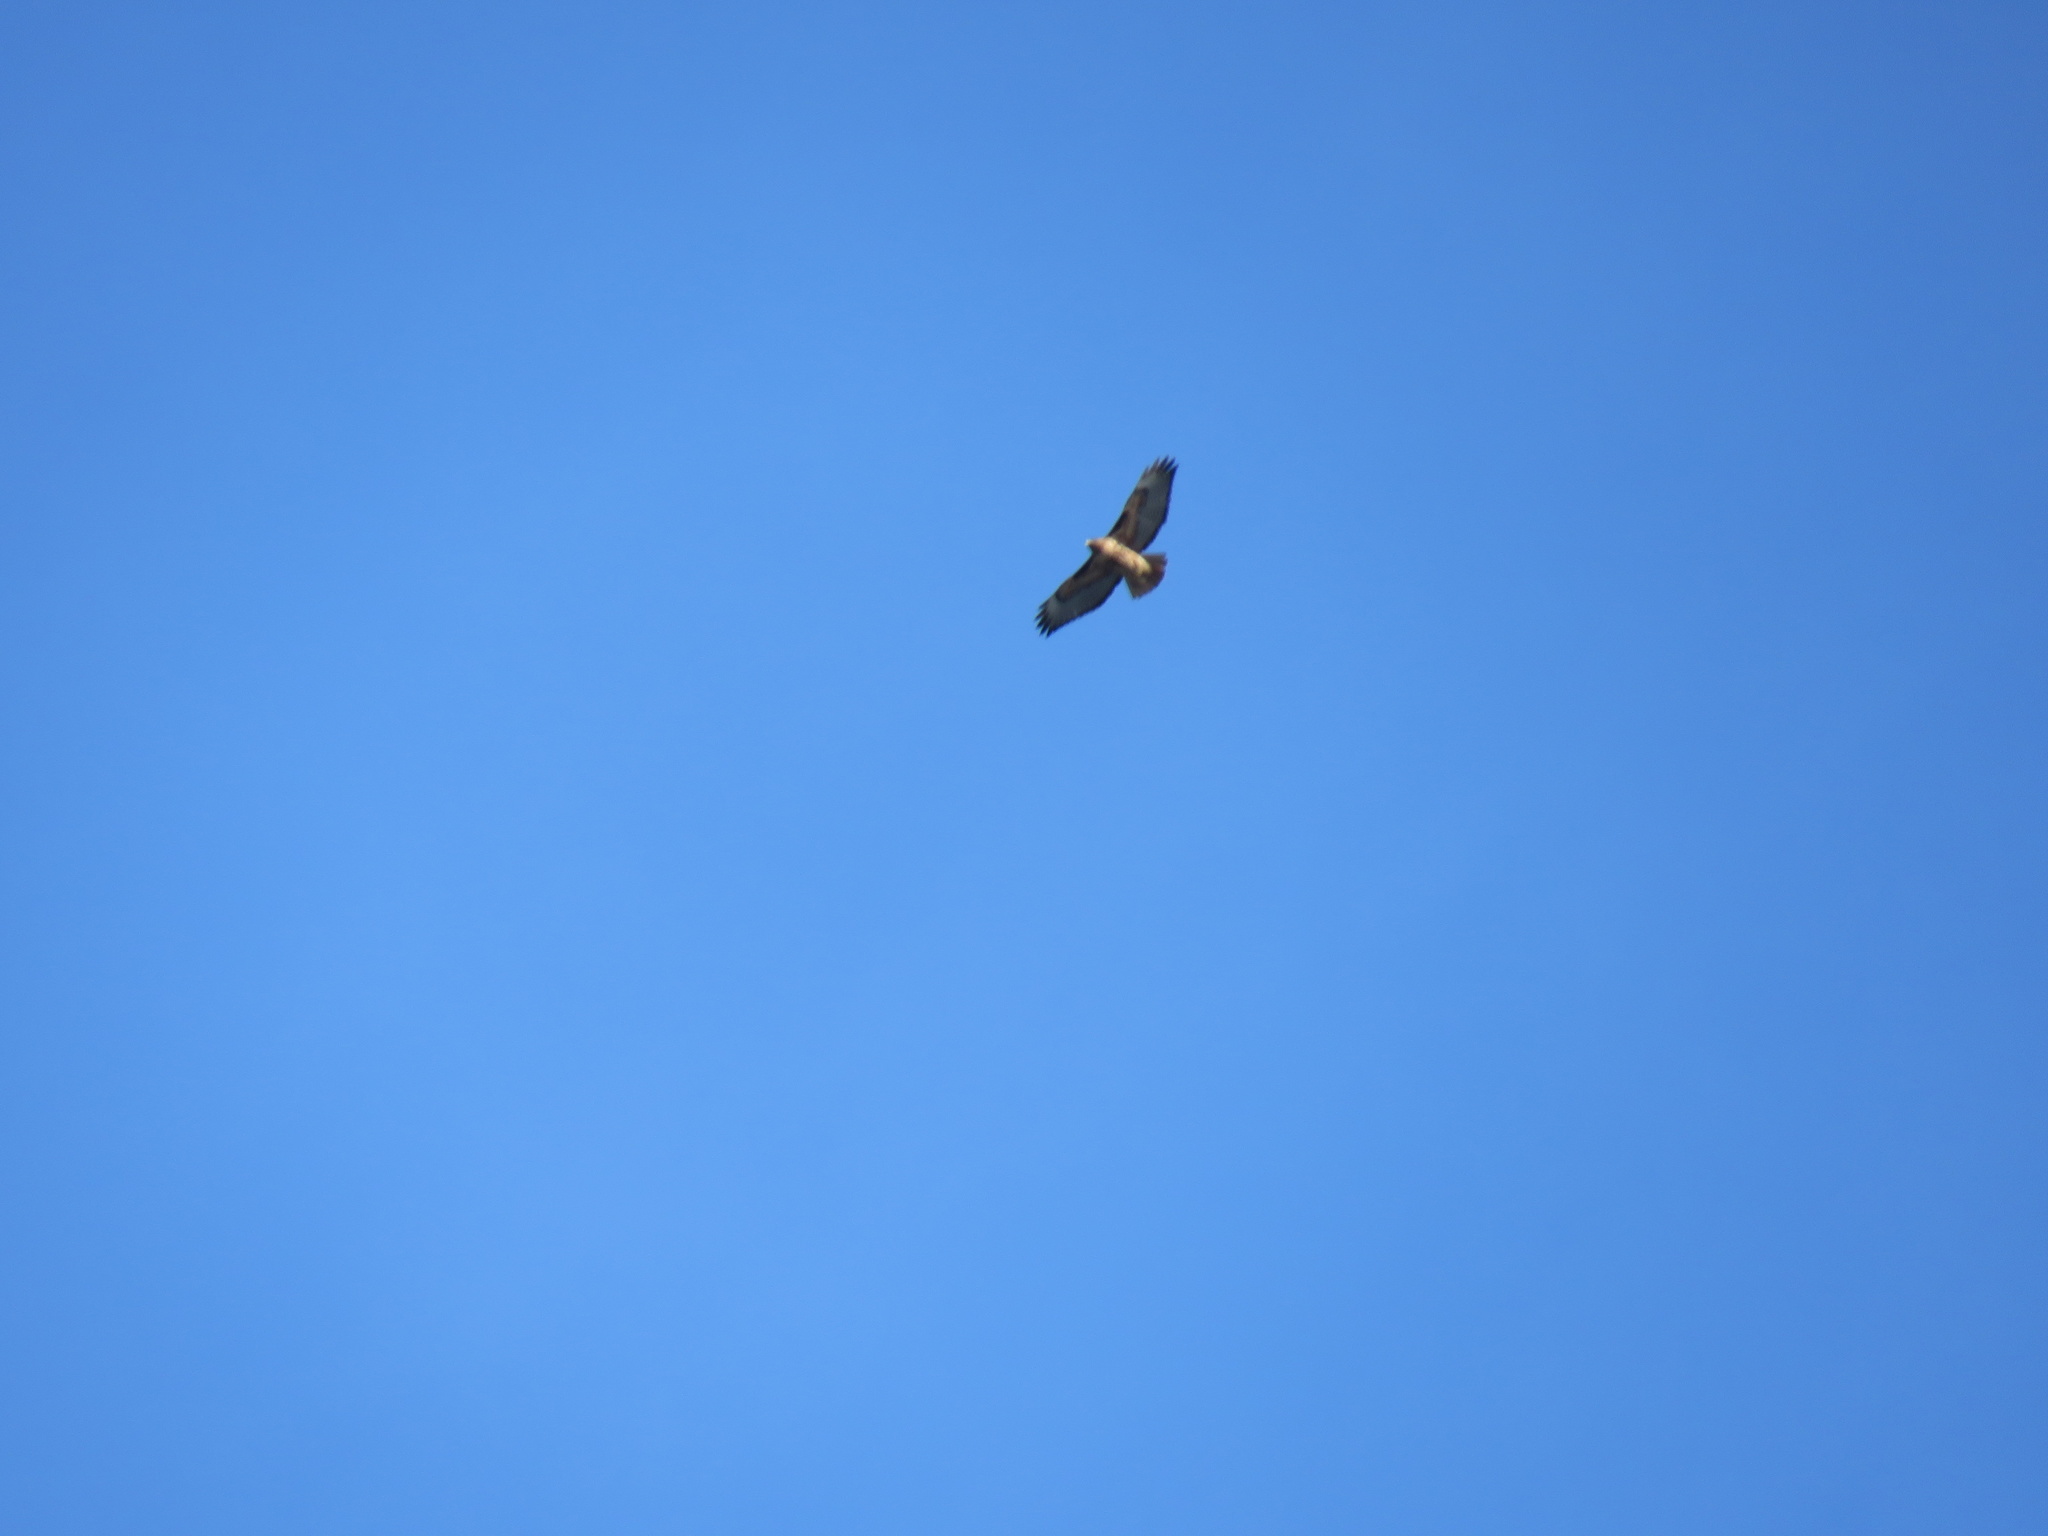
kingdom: Animalia
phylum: Chordata
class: Aves
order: Accipitriformes
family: Accipitridae
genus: Buteo
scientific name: Buteo jamaicensis
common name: Red-tailed hawk
